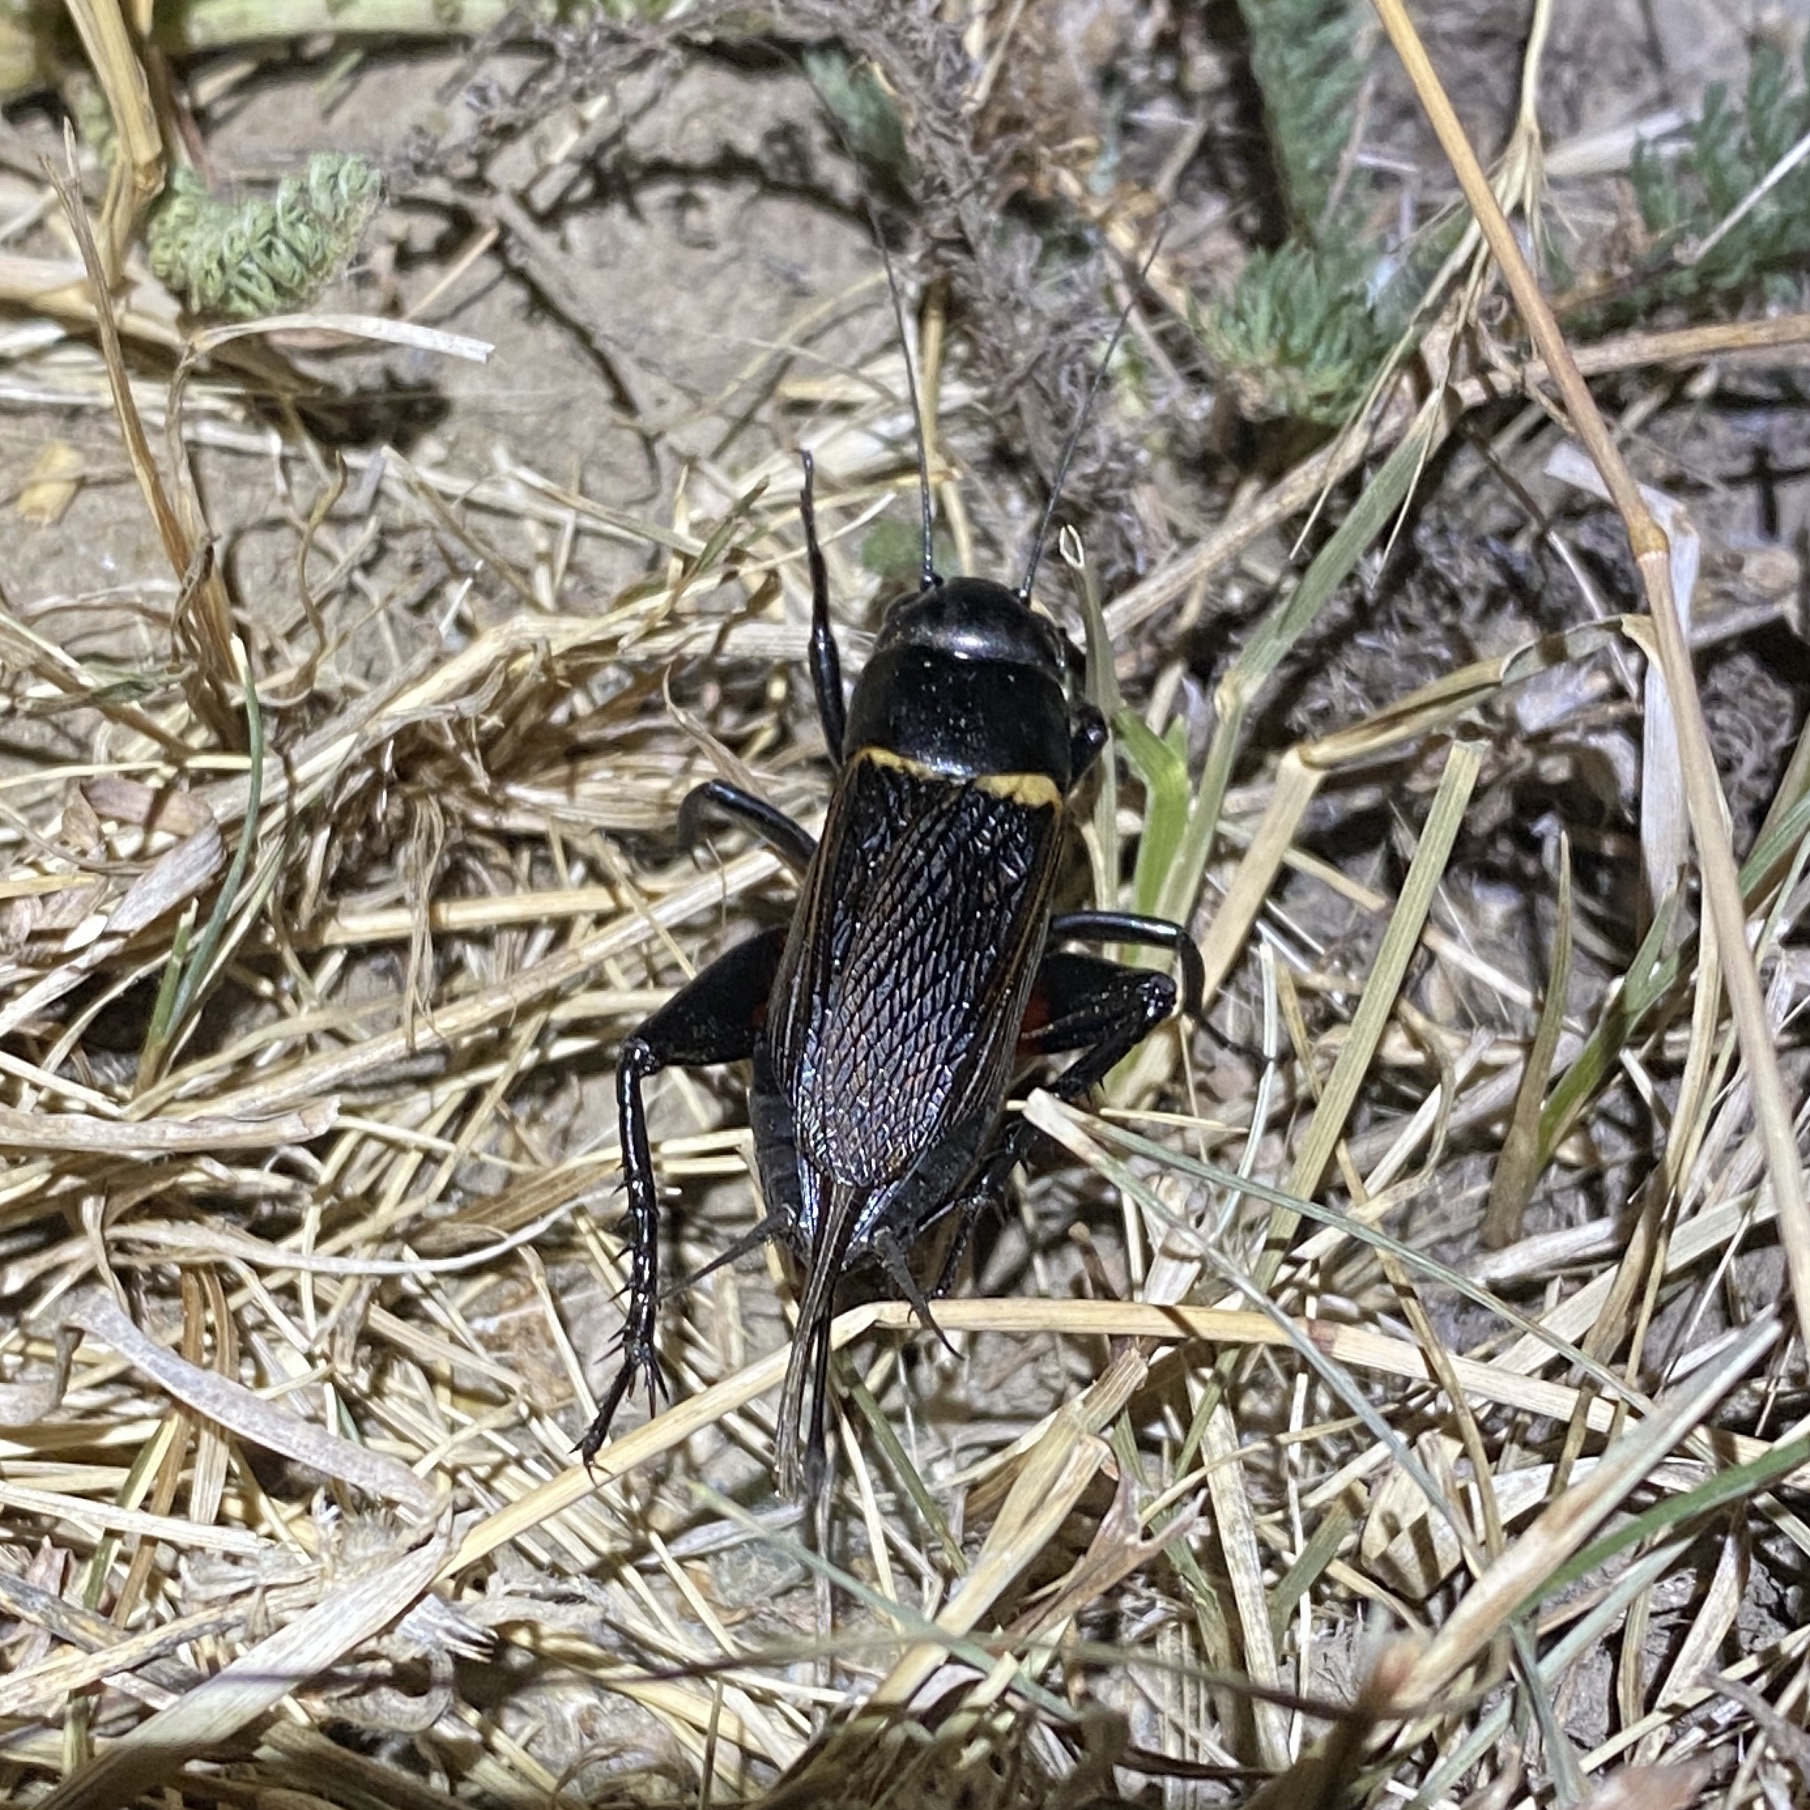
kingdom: Animalia
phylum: Arthropoda
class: Insecta
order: Orthoptera
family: Gryllidae
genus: Gryllus
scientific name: Gryllus bimaculatus
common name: Two-spotted cricket
